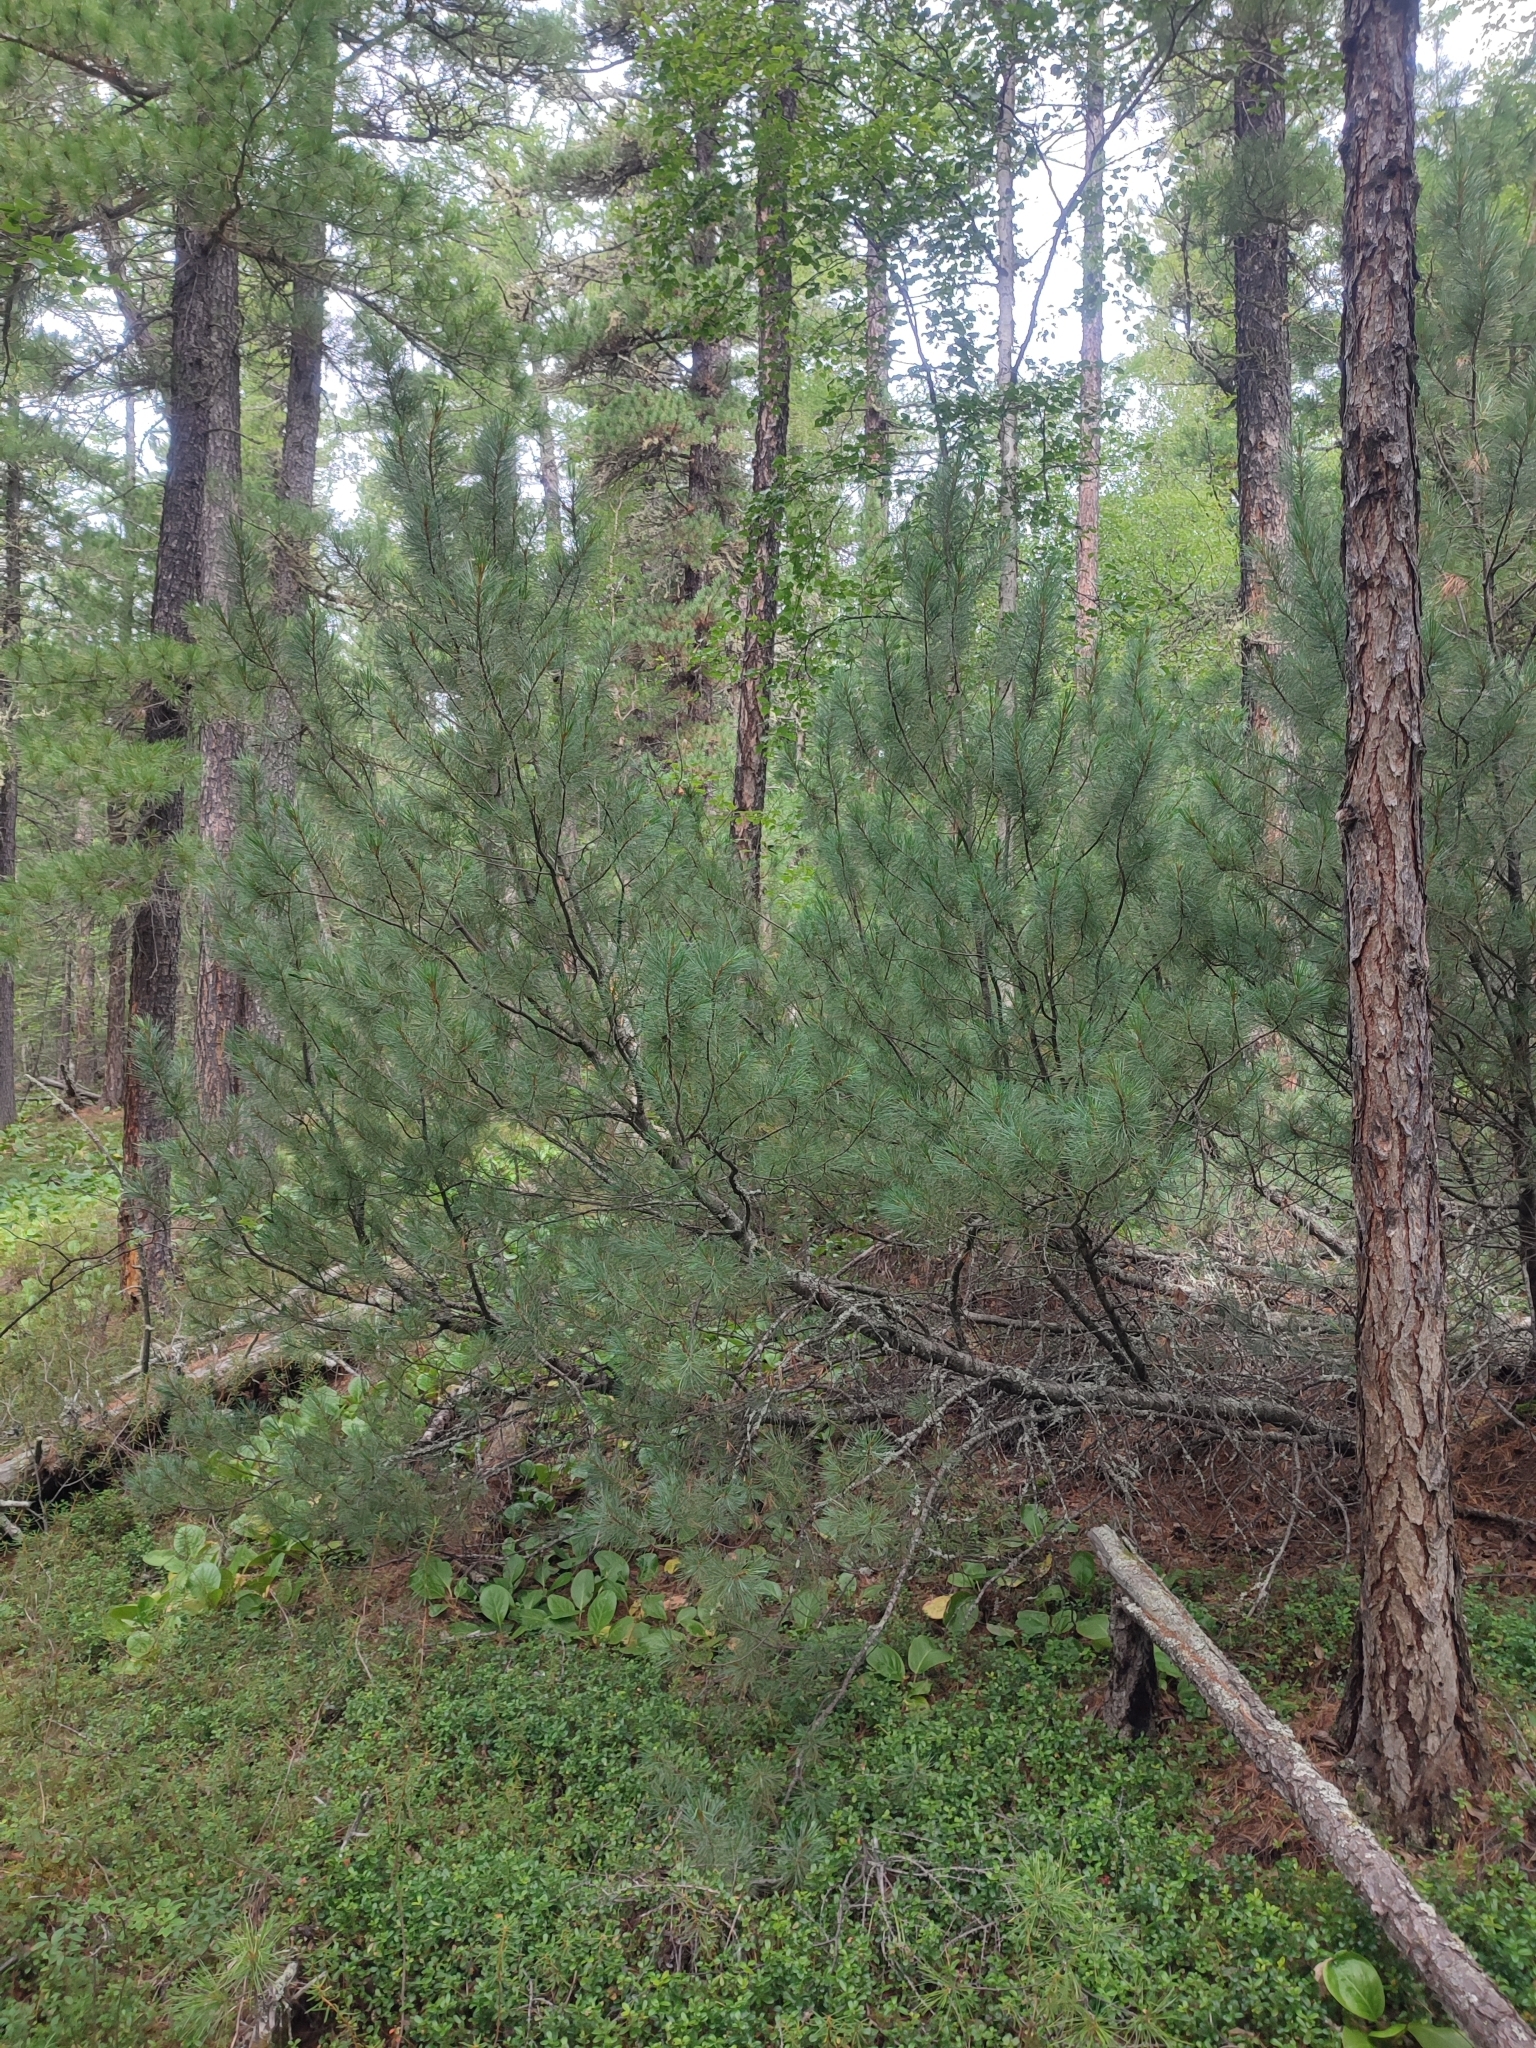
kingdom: Plantae
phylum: Tracheophyta
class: Pinopsida
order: Pinales
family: Pinaceae
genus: Pinus
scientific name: Pinus pumila
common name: Dwarf siberian pine
